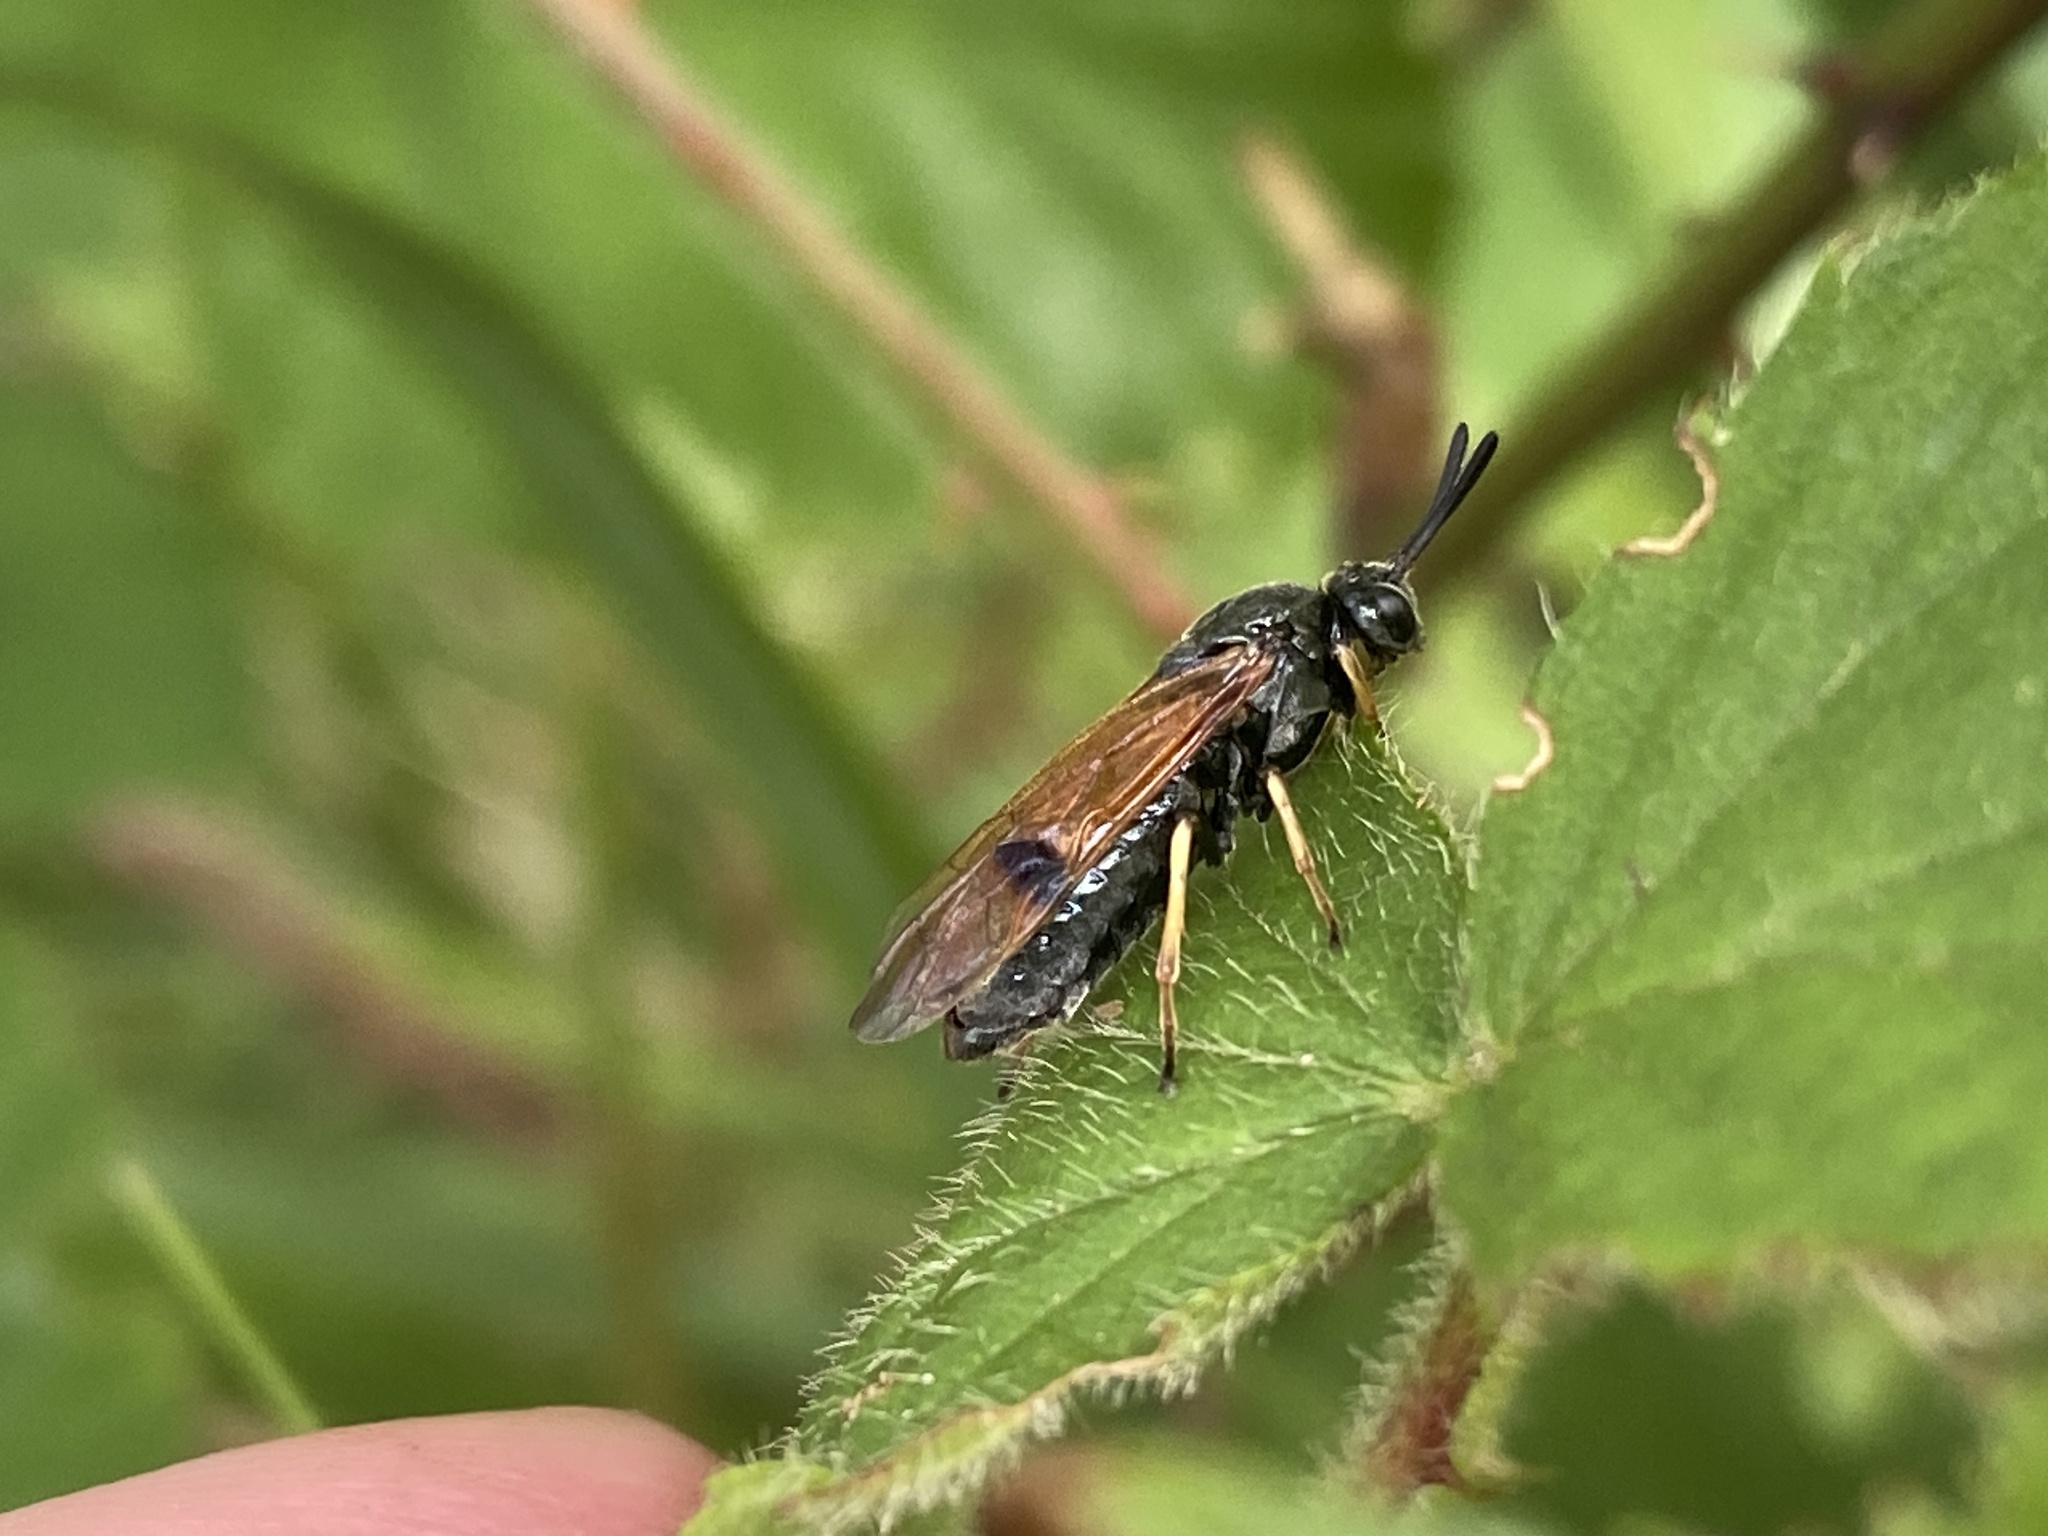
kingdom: Animalia
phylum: Arthropoda
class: Insecta
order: Hymenoptera
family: Argidae
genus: Arge
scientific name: Arge ustulata
